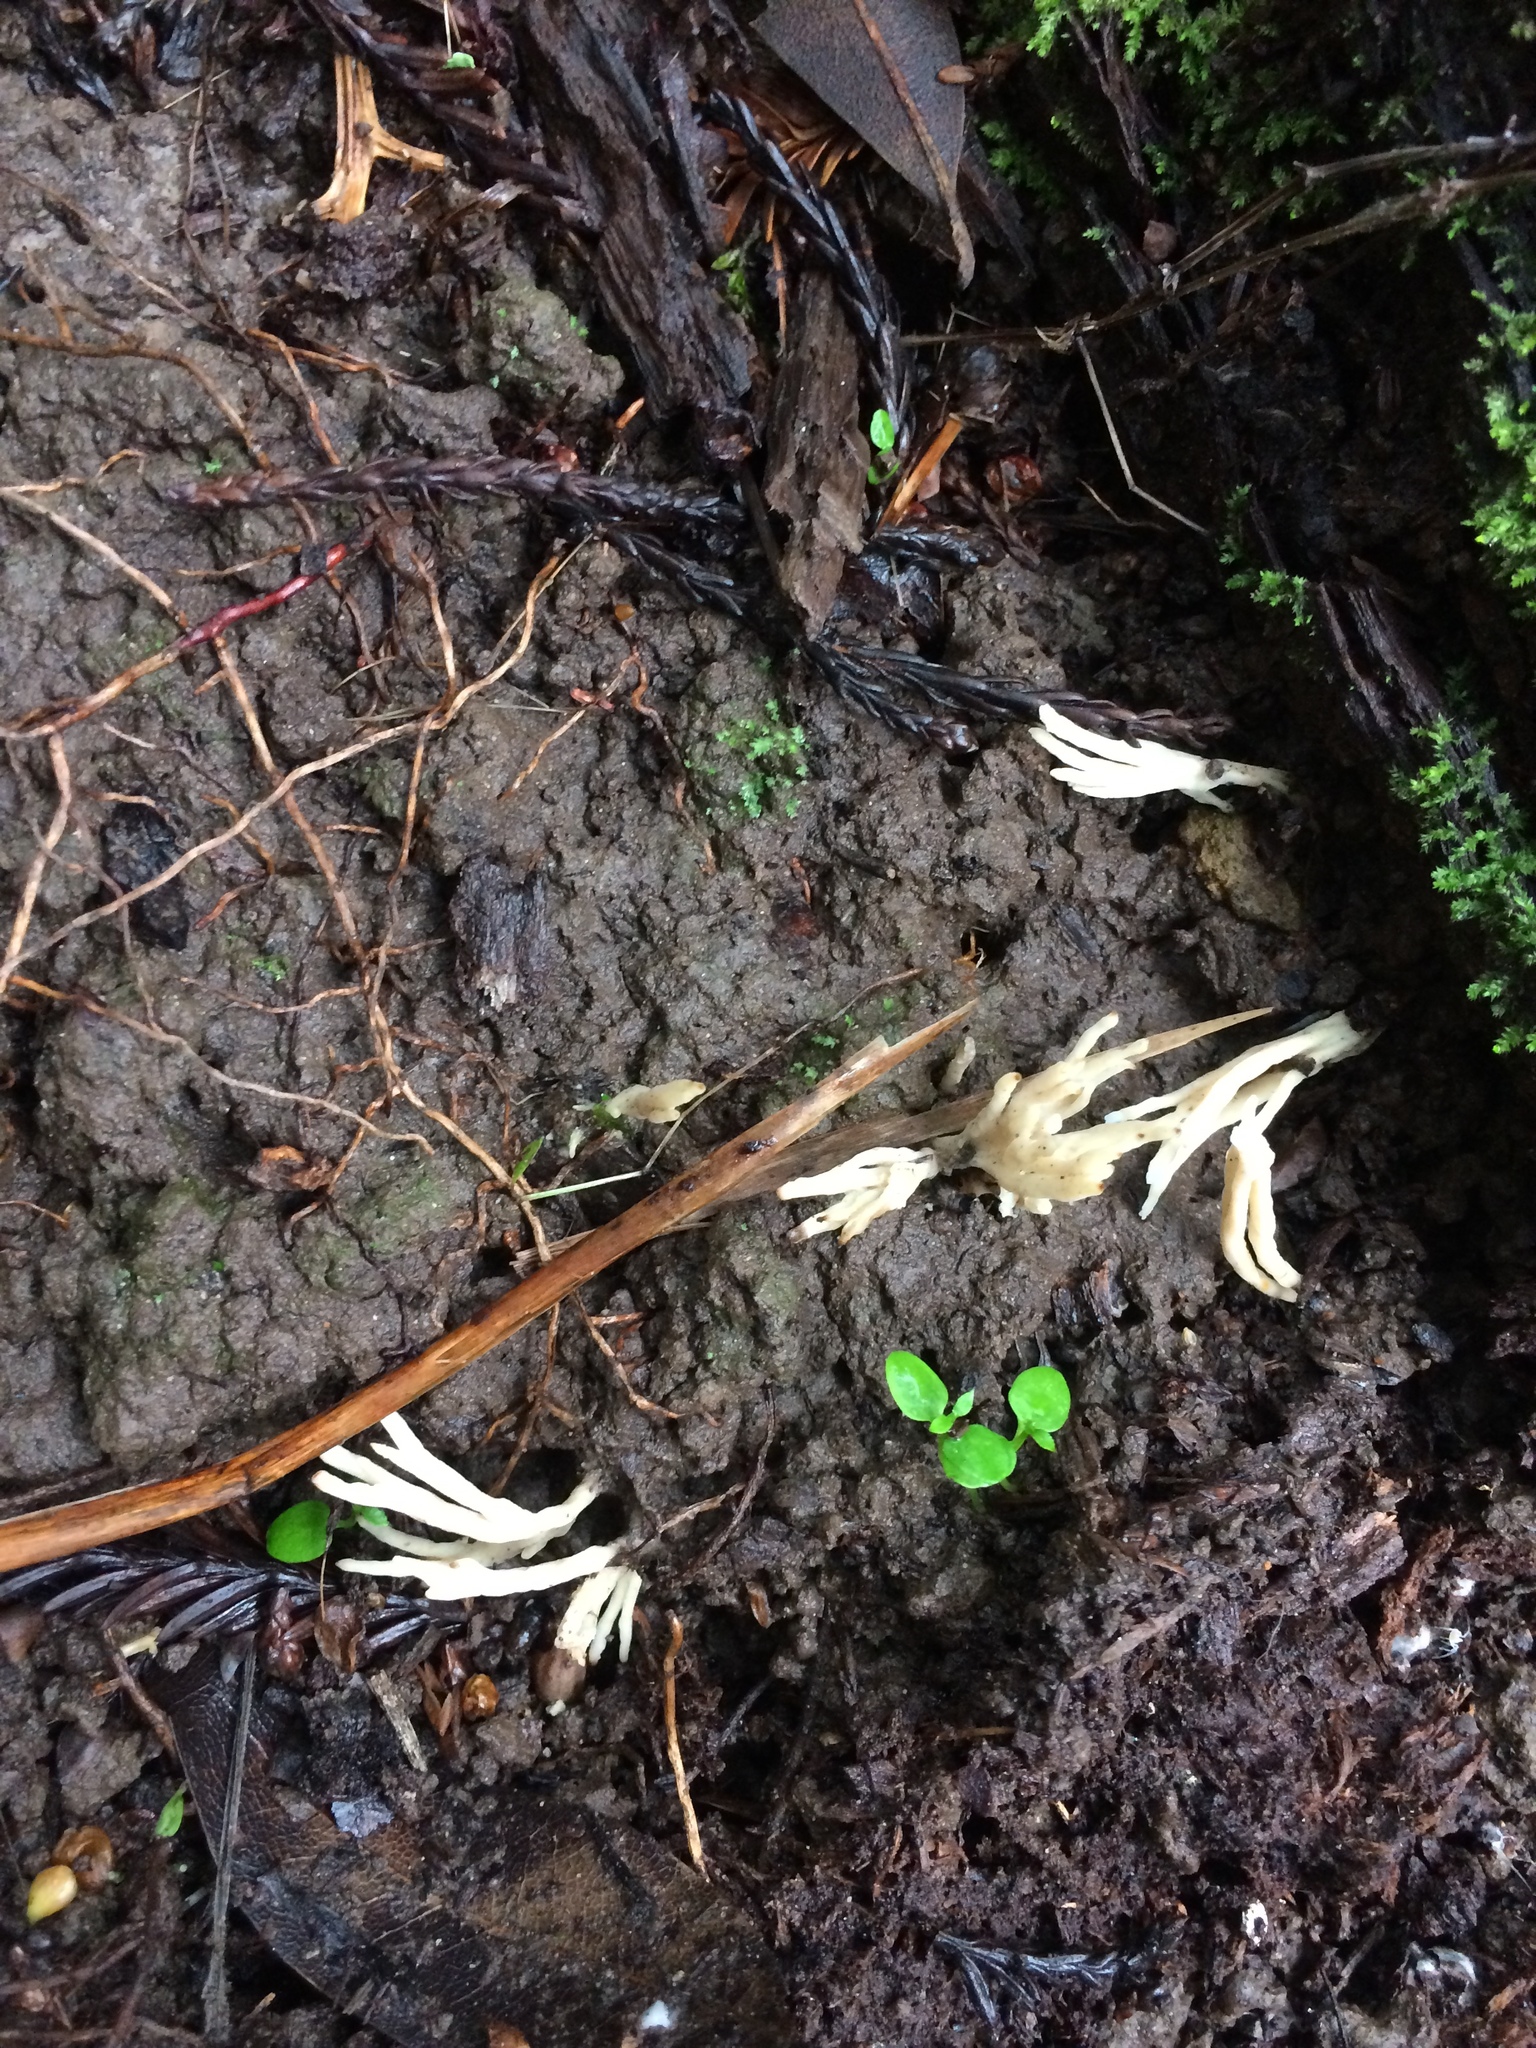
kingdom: Fungi
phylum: Basidiomycota
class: Agaricomycetes
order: Tremellodendropsidales
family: Tremellodendropsidaceae
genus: Tremellodendropsis
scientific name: Tremellodendropsis tuberosa
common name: Ashen coral
